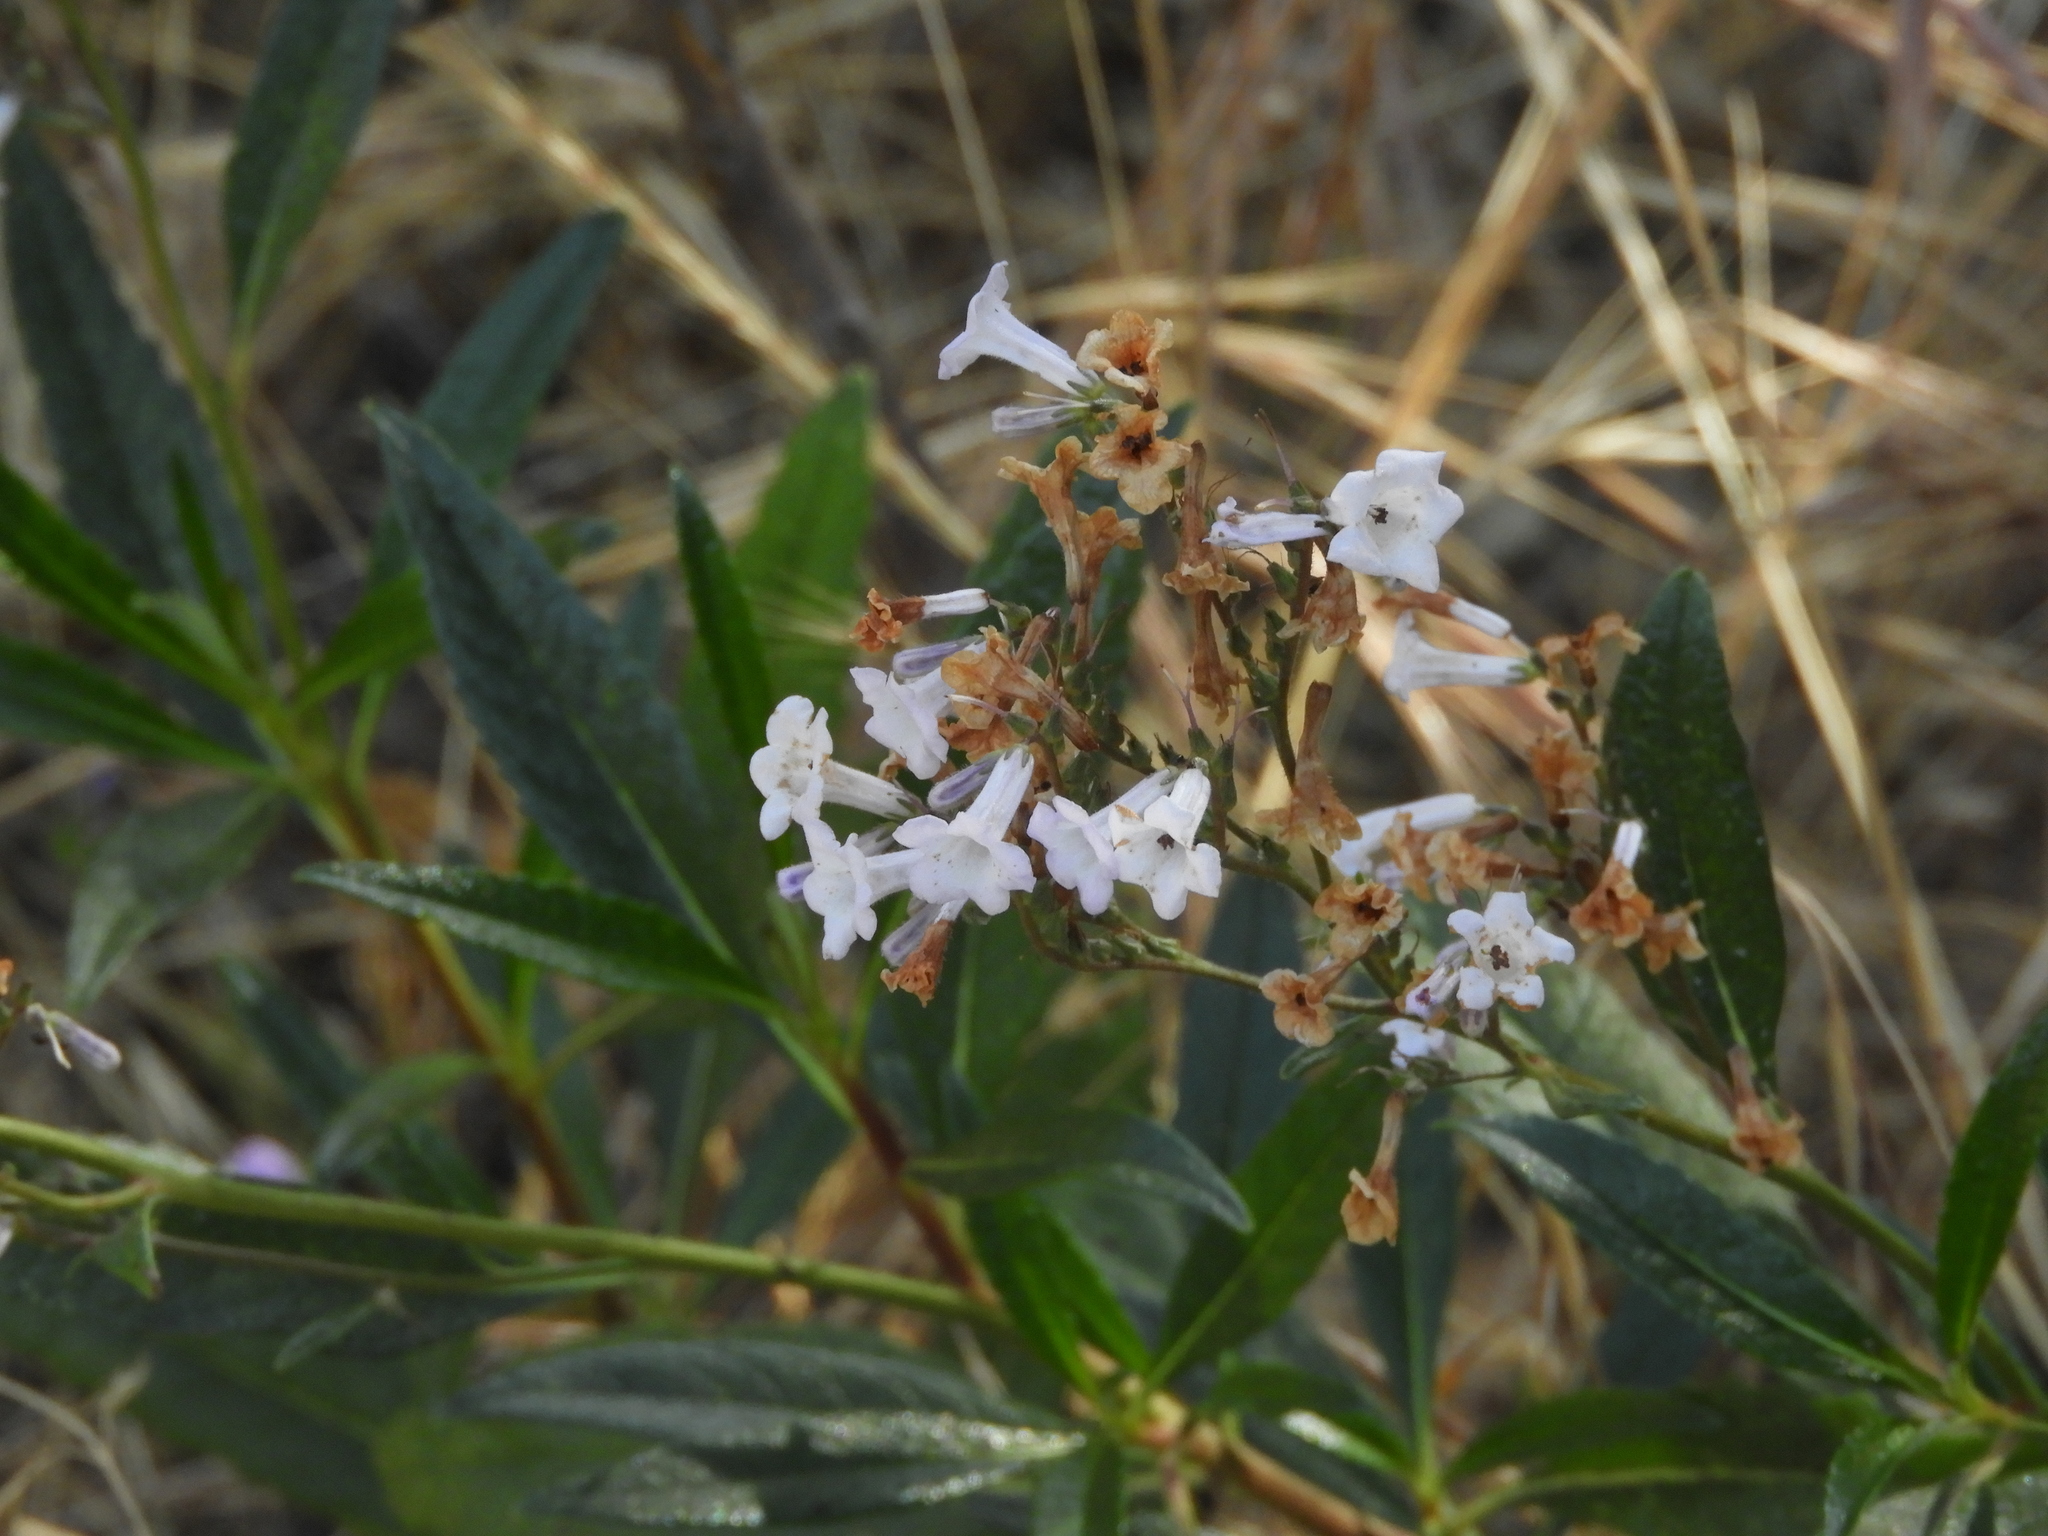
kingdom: Plantae
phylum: Tracheophyta
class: Magnoliopsida
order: Boraginales
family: Namaceae
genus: Eriodictyon
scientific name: Eriodictyon californicum
